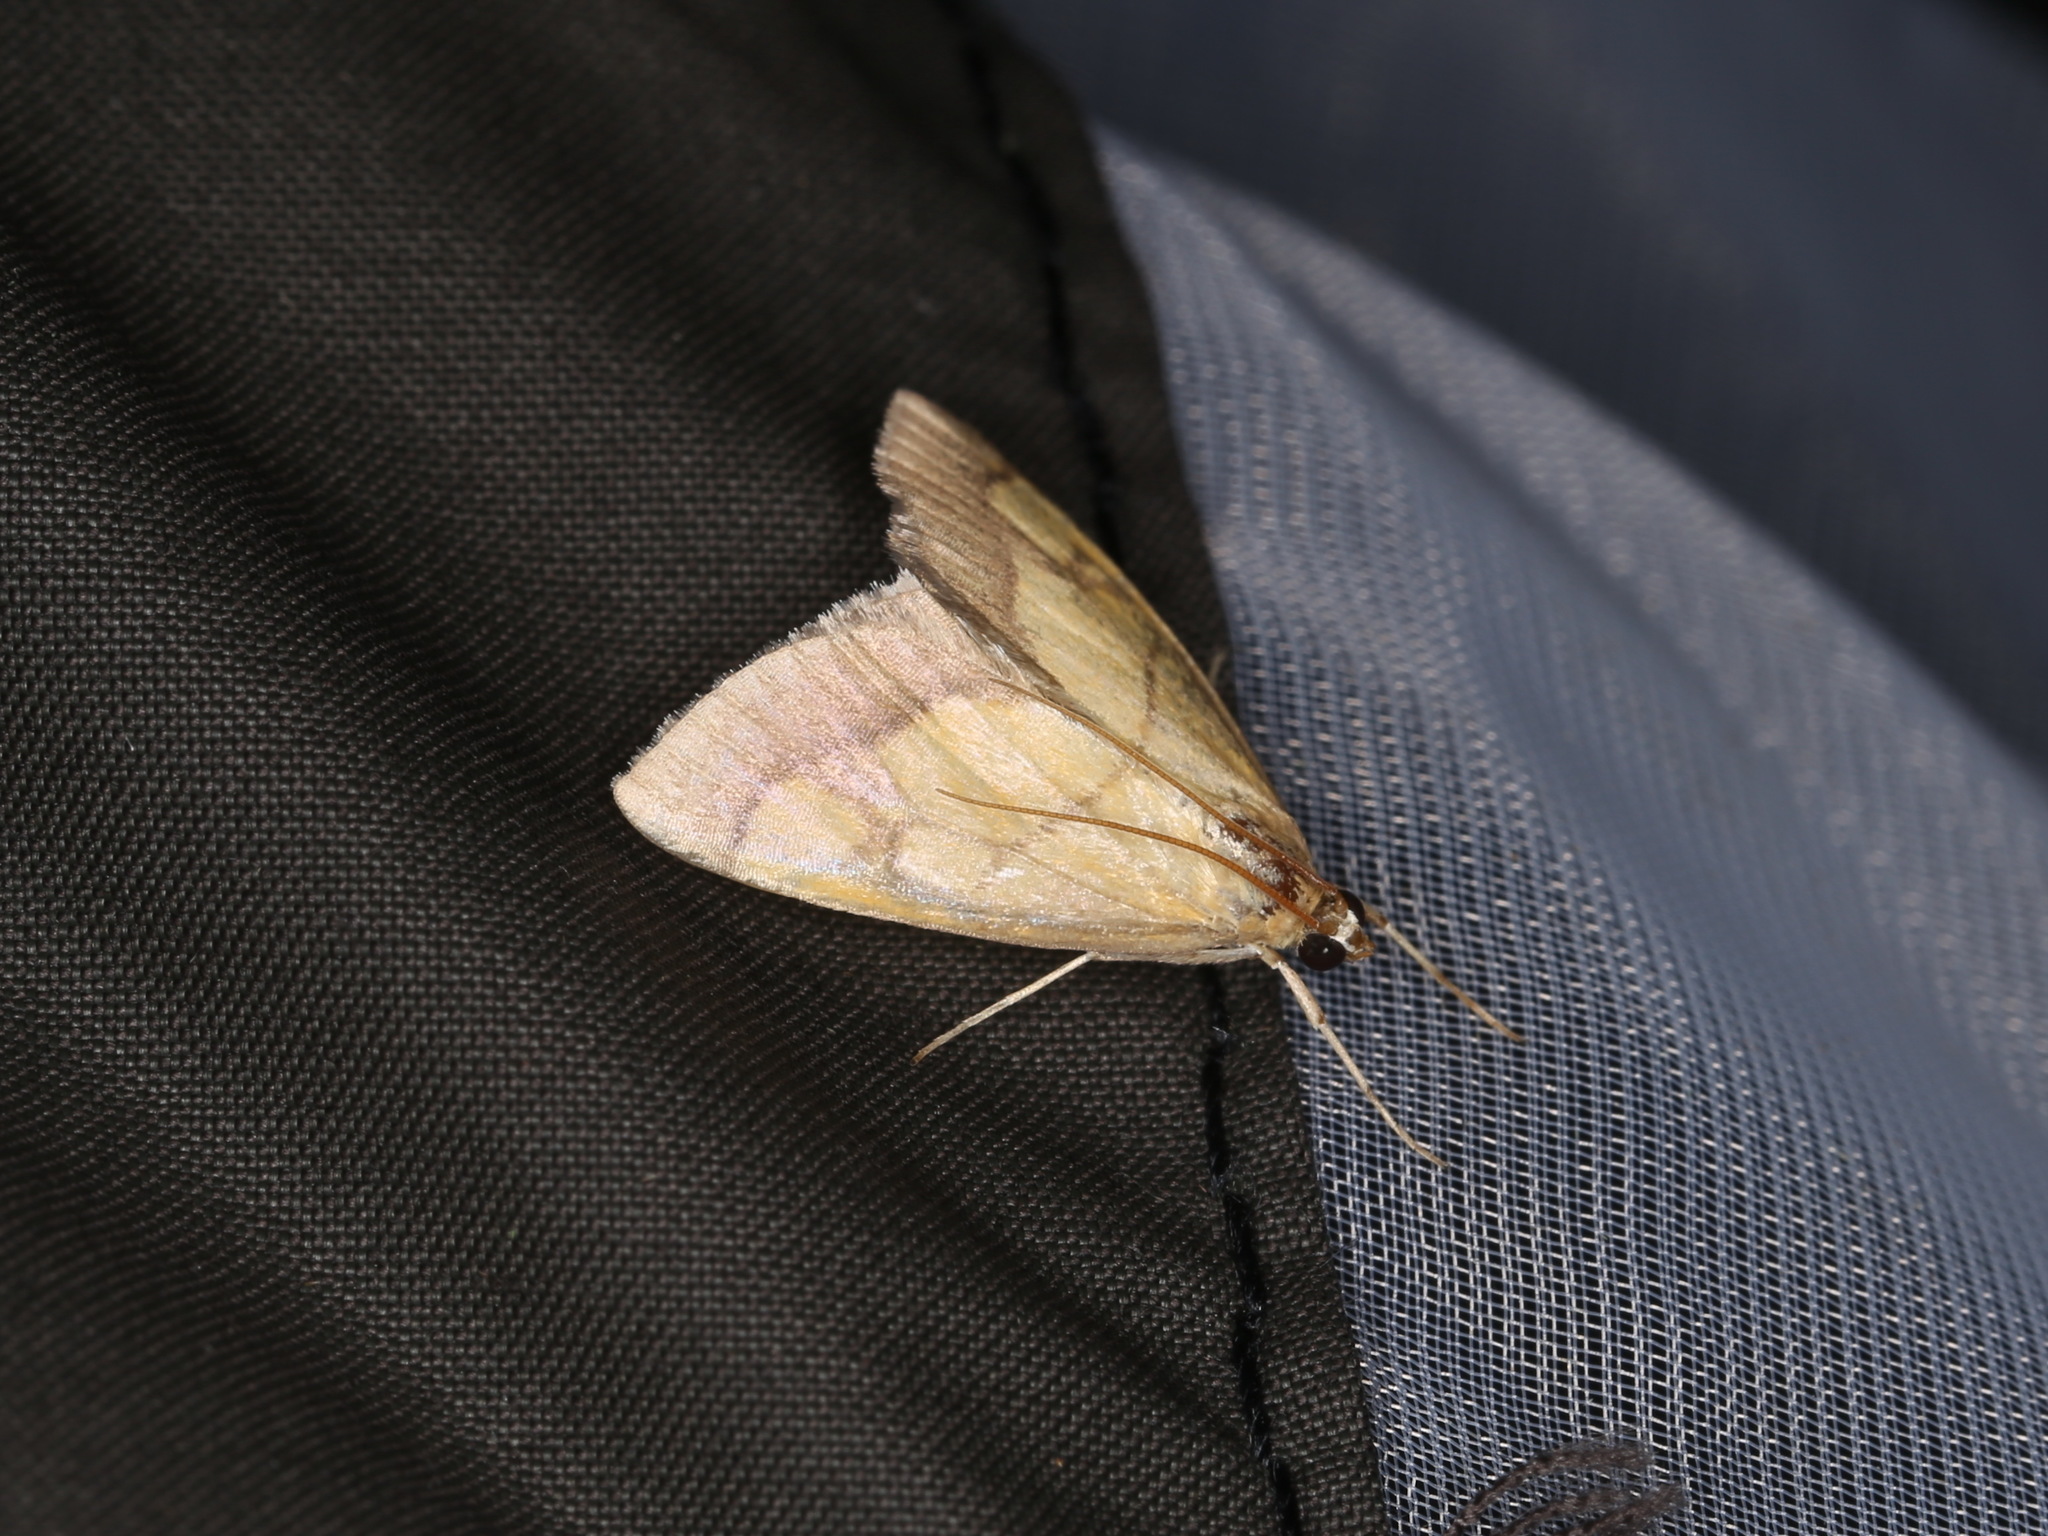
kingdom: Animalia
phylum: Arthropoda
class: Insecta
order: Lepidoptera
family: Crambidae
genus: Evergestis
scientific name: Evergestis limbata
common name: Dark bordered pearl
